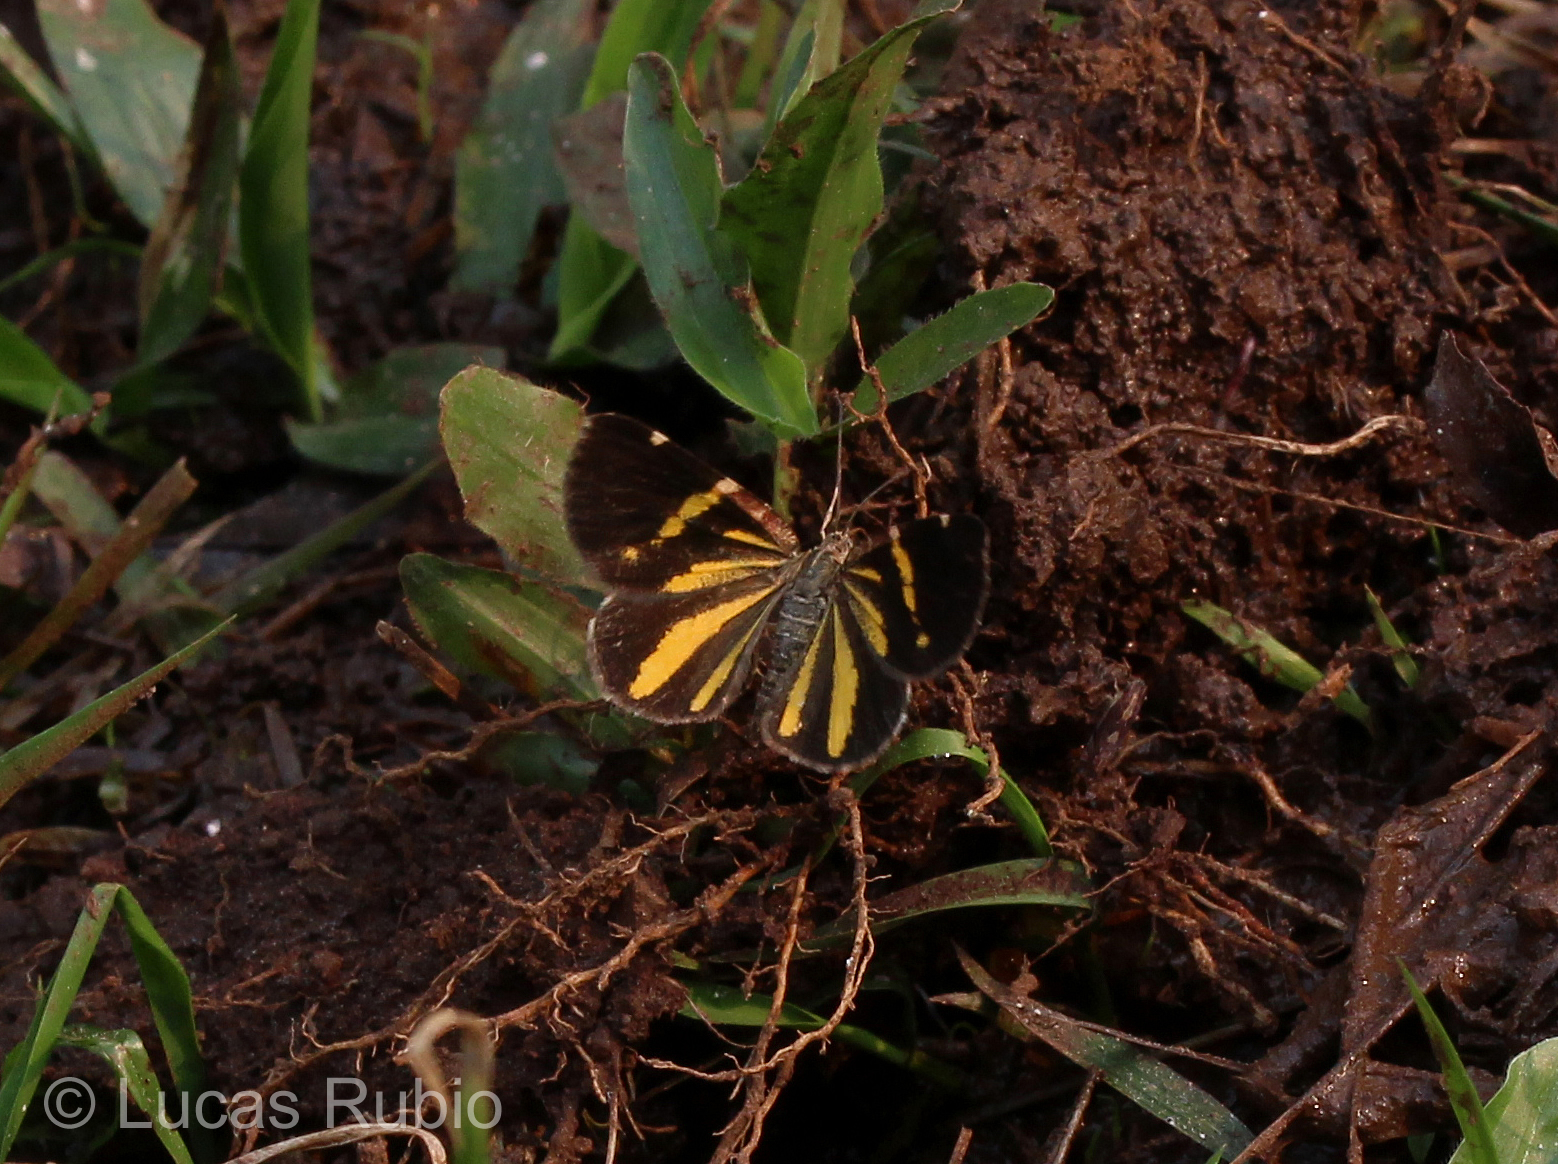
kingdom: Animalia
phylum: Arthropoda
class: Insecta
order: Lepidoptera
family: Geometridae
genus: Heterusia
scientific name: Heterusia quadruplicaria
